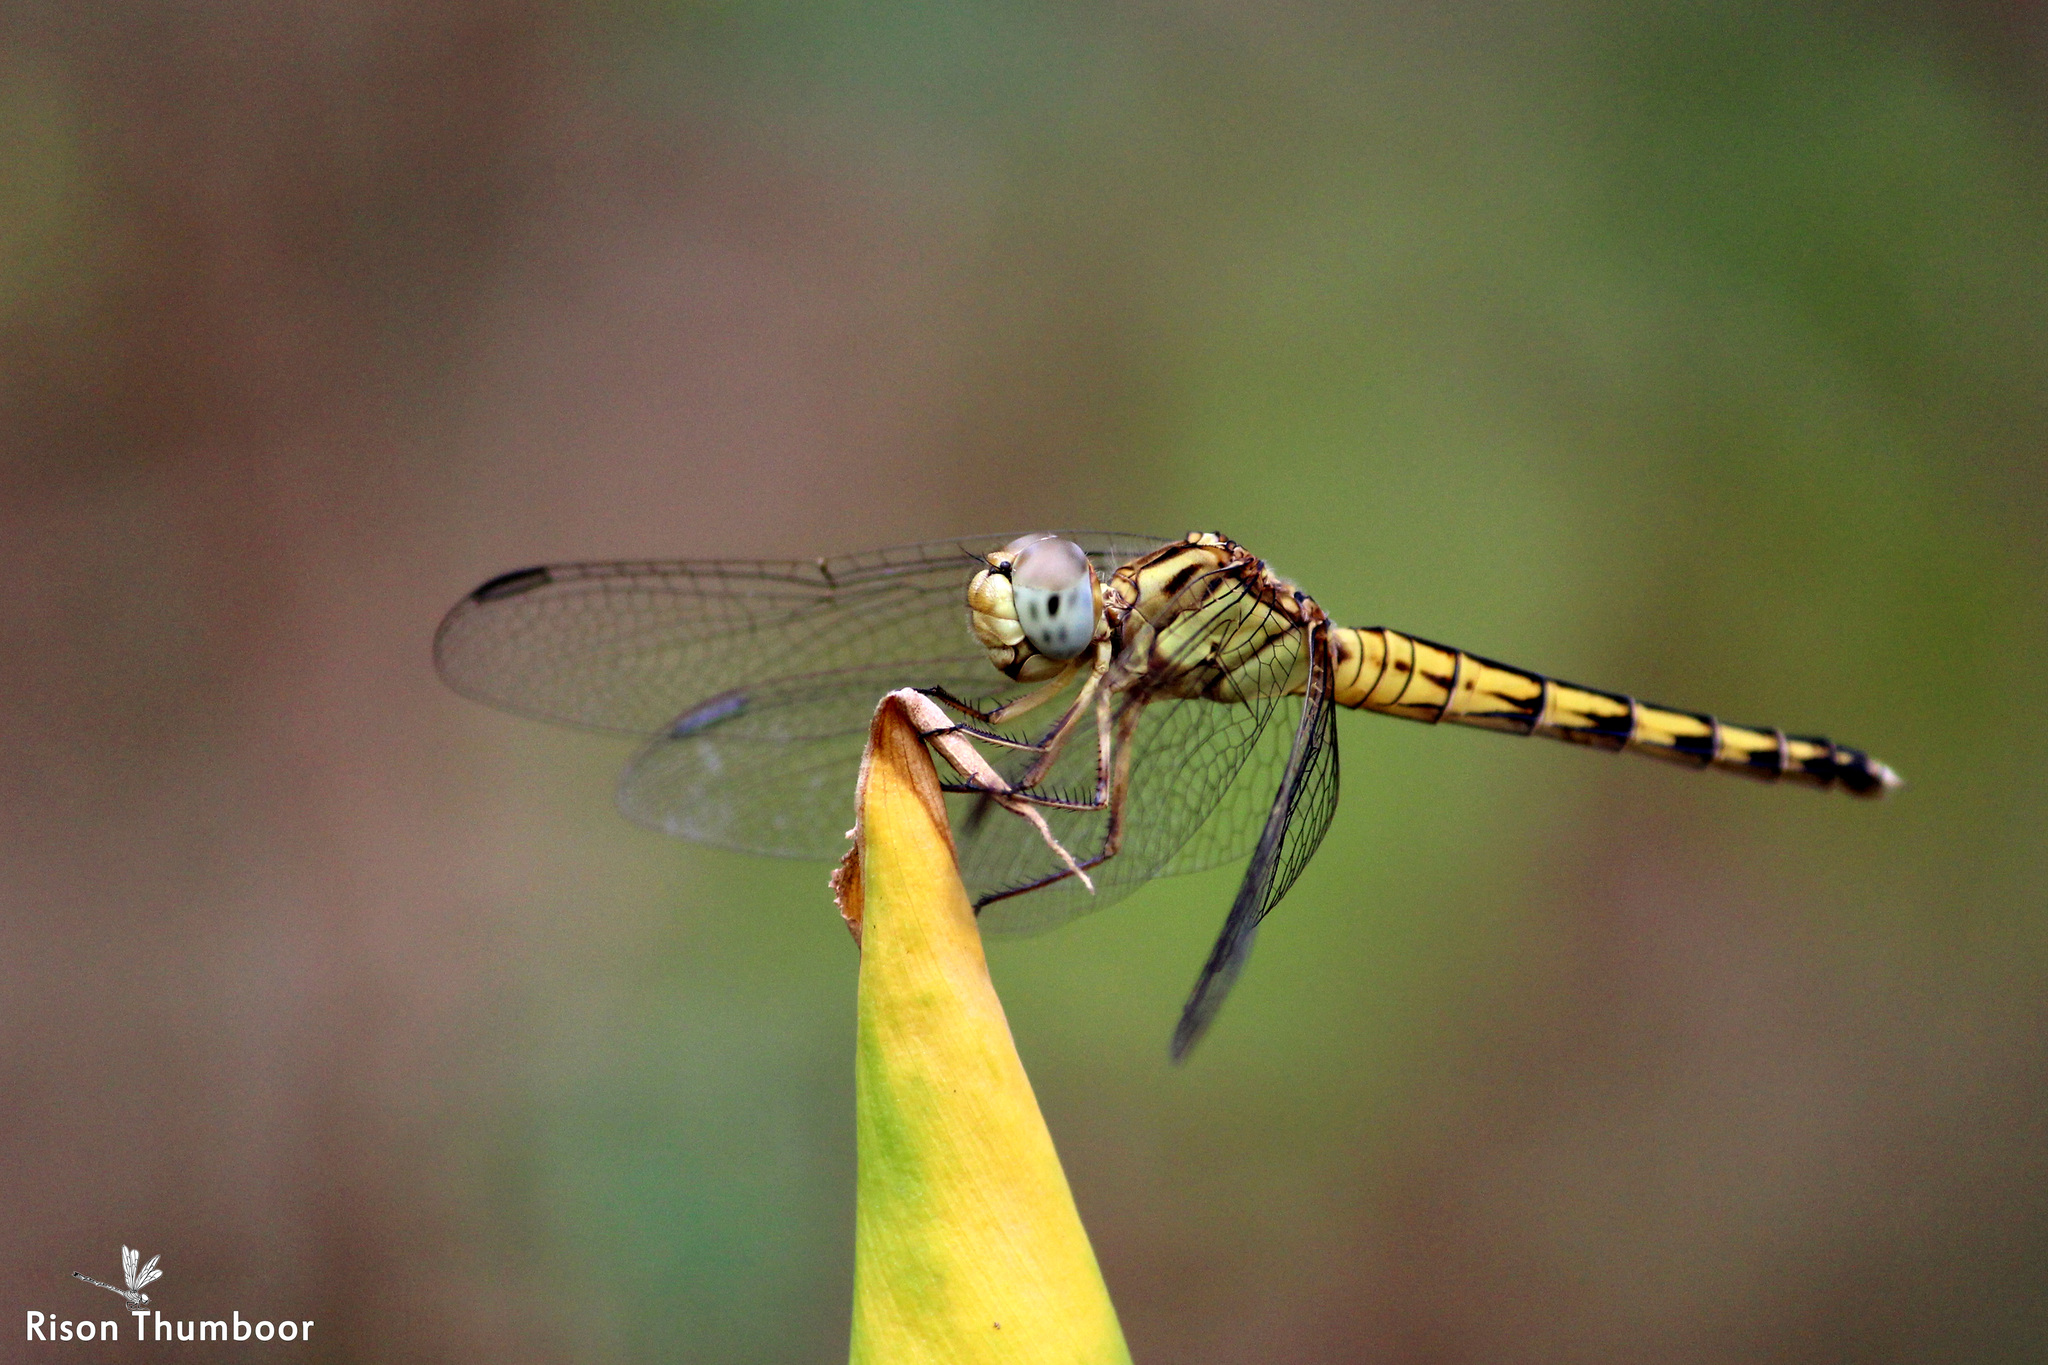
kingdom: Animalia
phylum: Arthropoda
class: Insecta
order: Odonata
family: Libellulidae
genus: Indothemis
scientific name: Indothemis carnatica
